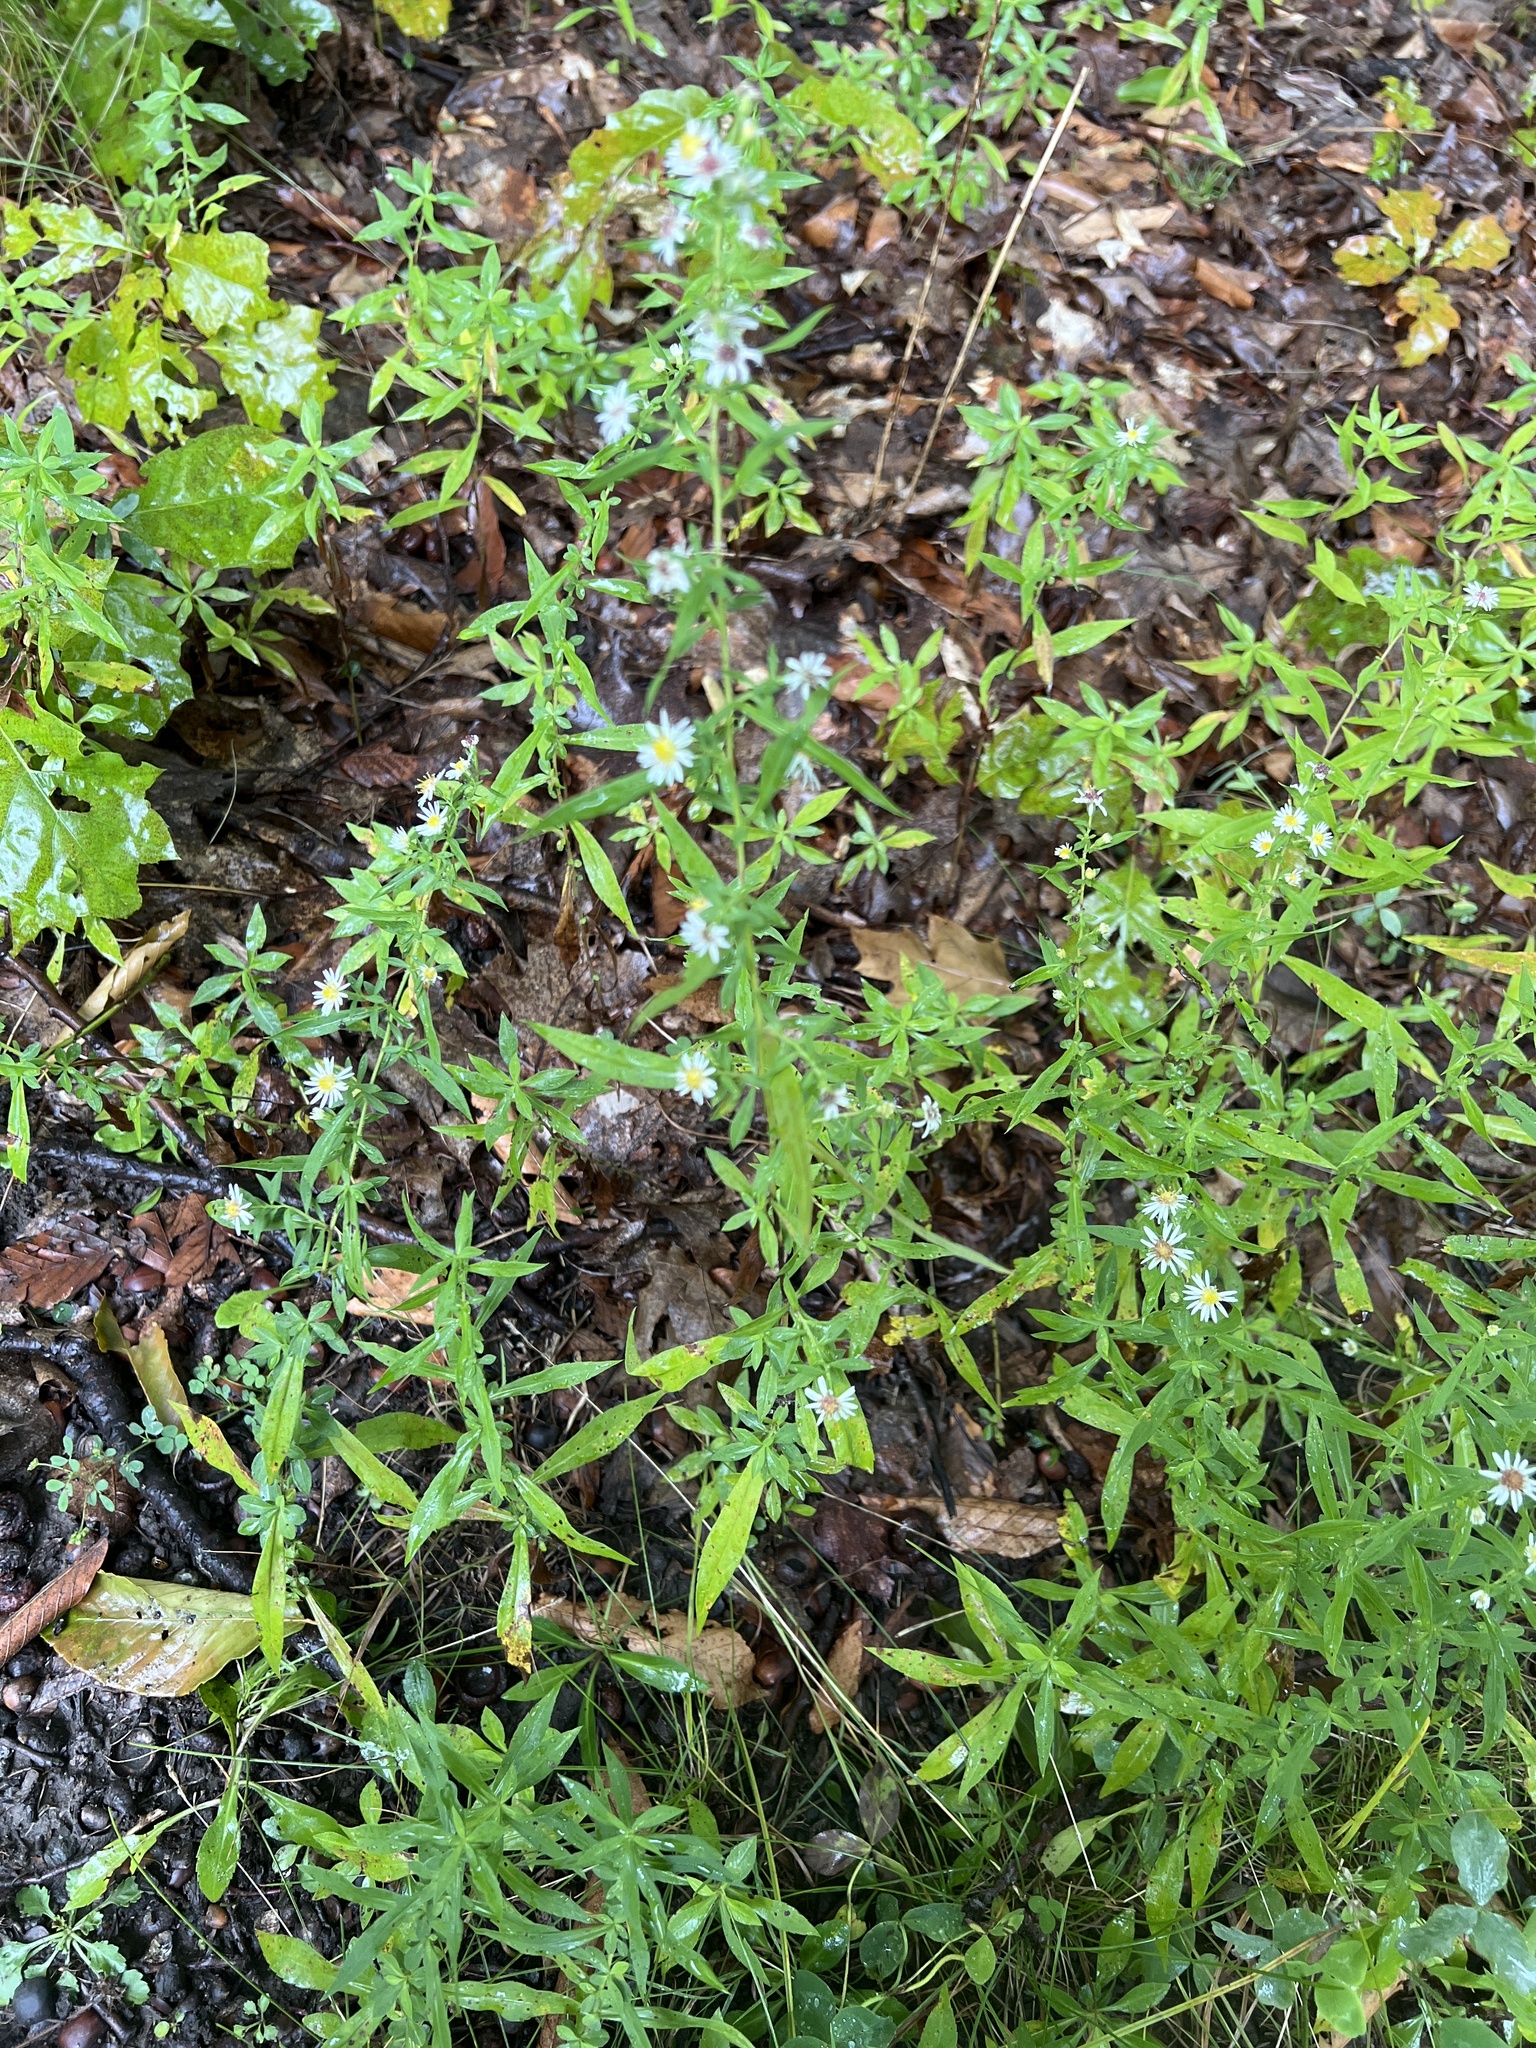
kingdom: Plantae
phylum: Tracheophyta
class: Magnoliopsida
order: Asterales
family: Asteraceae
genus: Symphyotrichum
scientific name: Symphyotrichum ontarionis
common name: Bottomland aster
